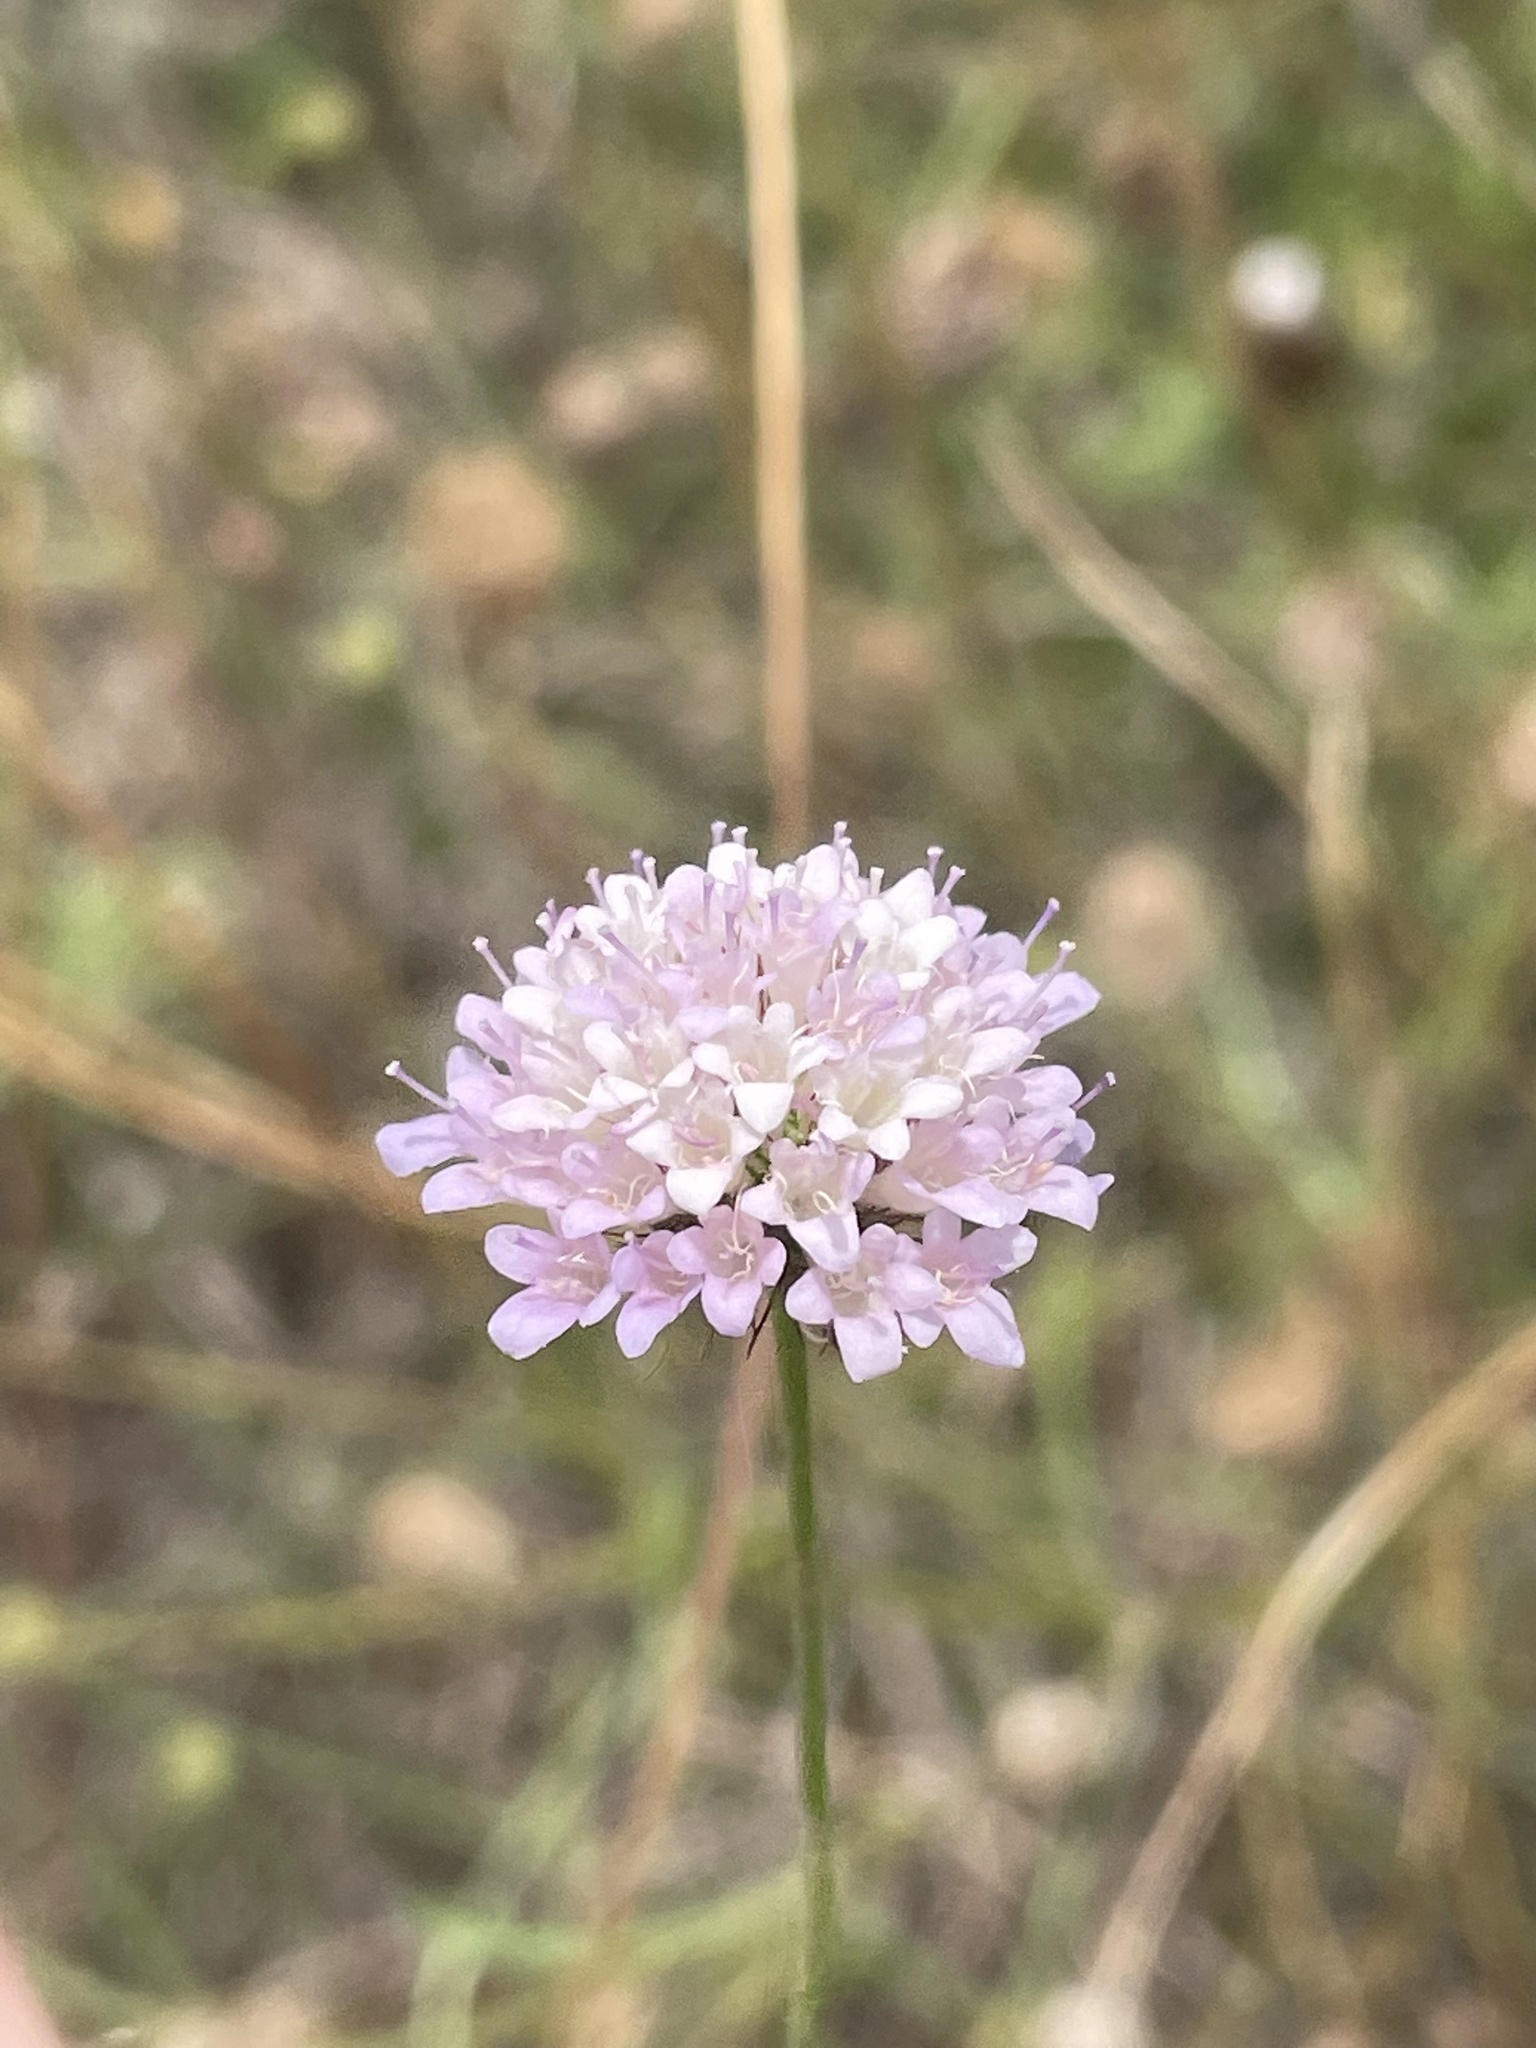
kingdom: Plantae
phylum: Tracheophyta
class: Magnoliopsida
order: Dipsacales
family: Caprifoliaceae
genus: Sixalix
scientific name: Sixalix atropurpurea
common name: Sweet scabious
